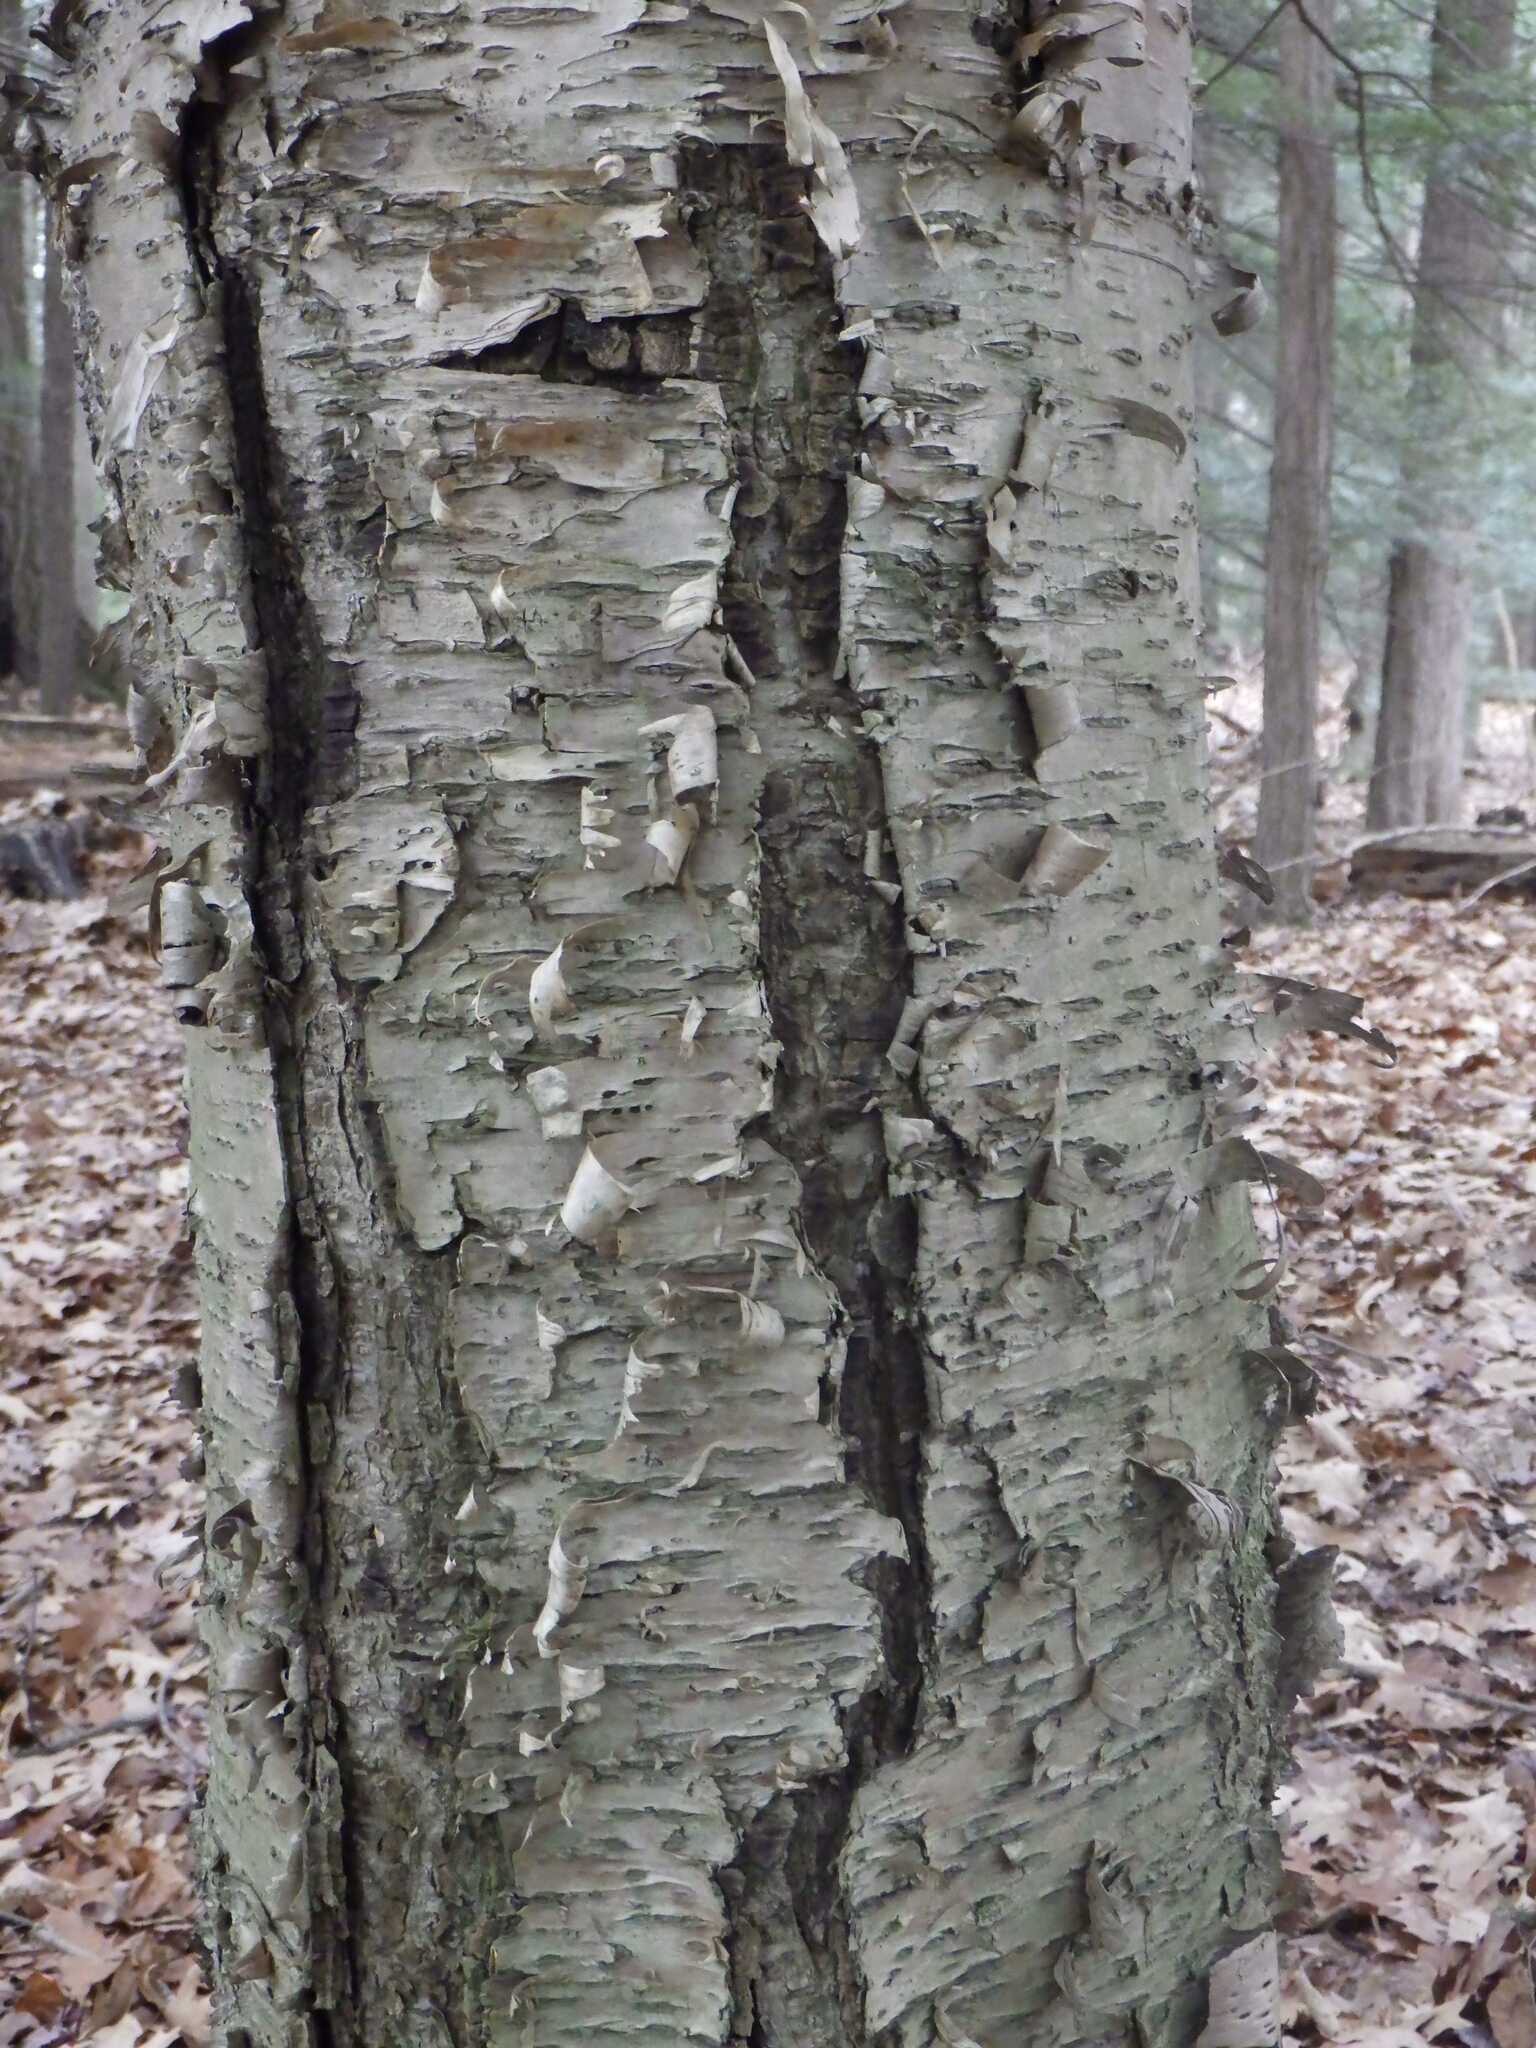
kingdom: Plantae
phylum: Tracheophyta
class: Magnoliopsida
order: Fagales
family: Betulaceae
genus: Betula
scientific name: Betula alleghaniensis
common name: Yellow birch
